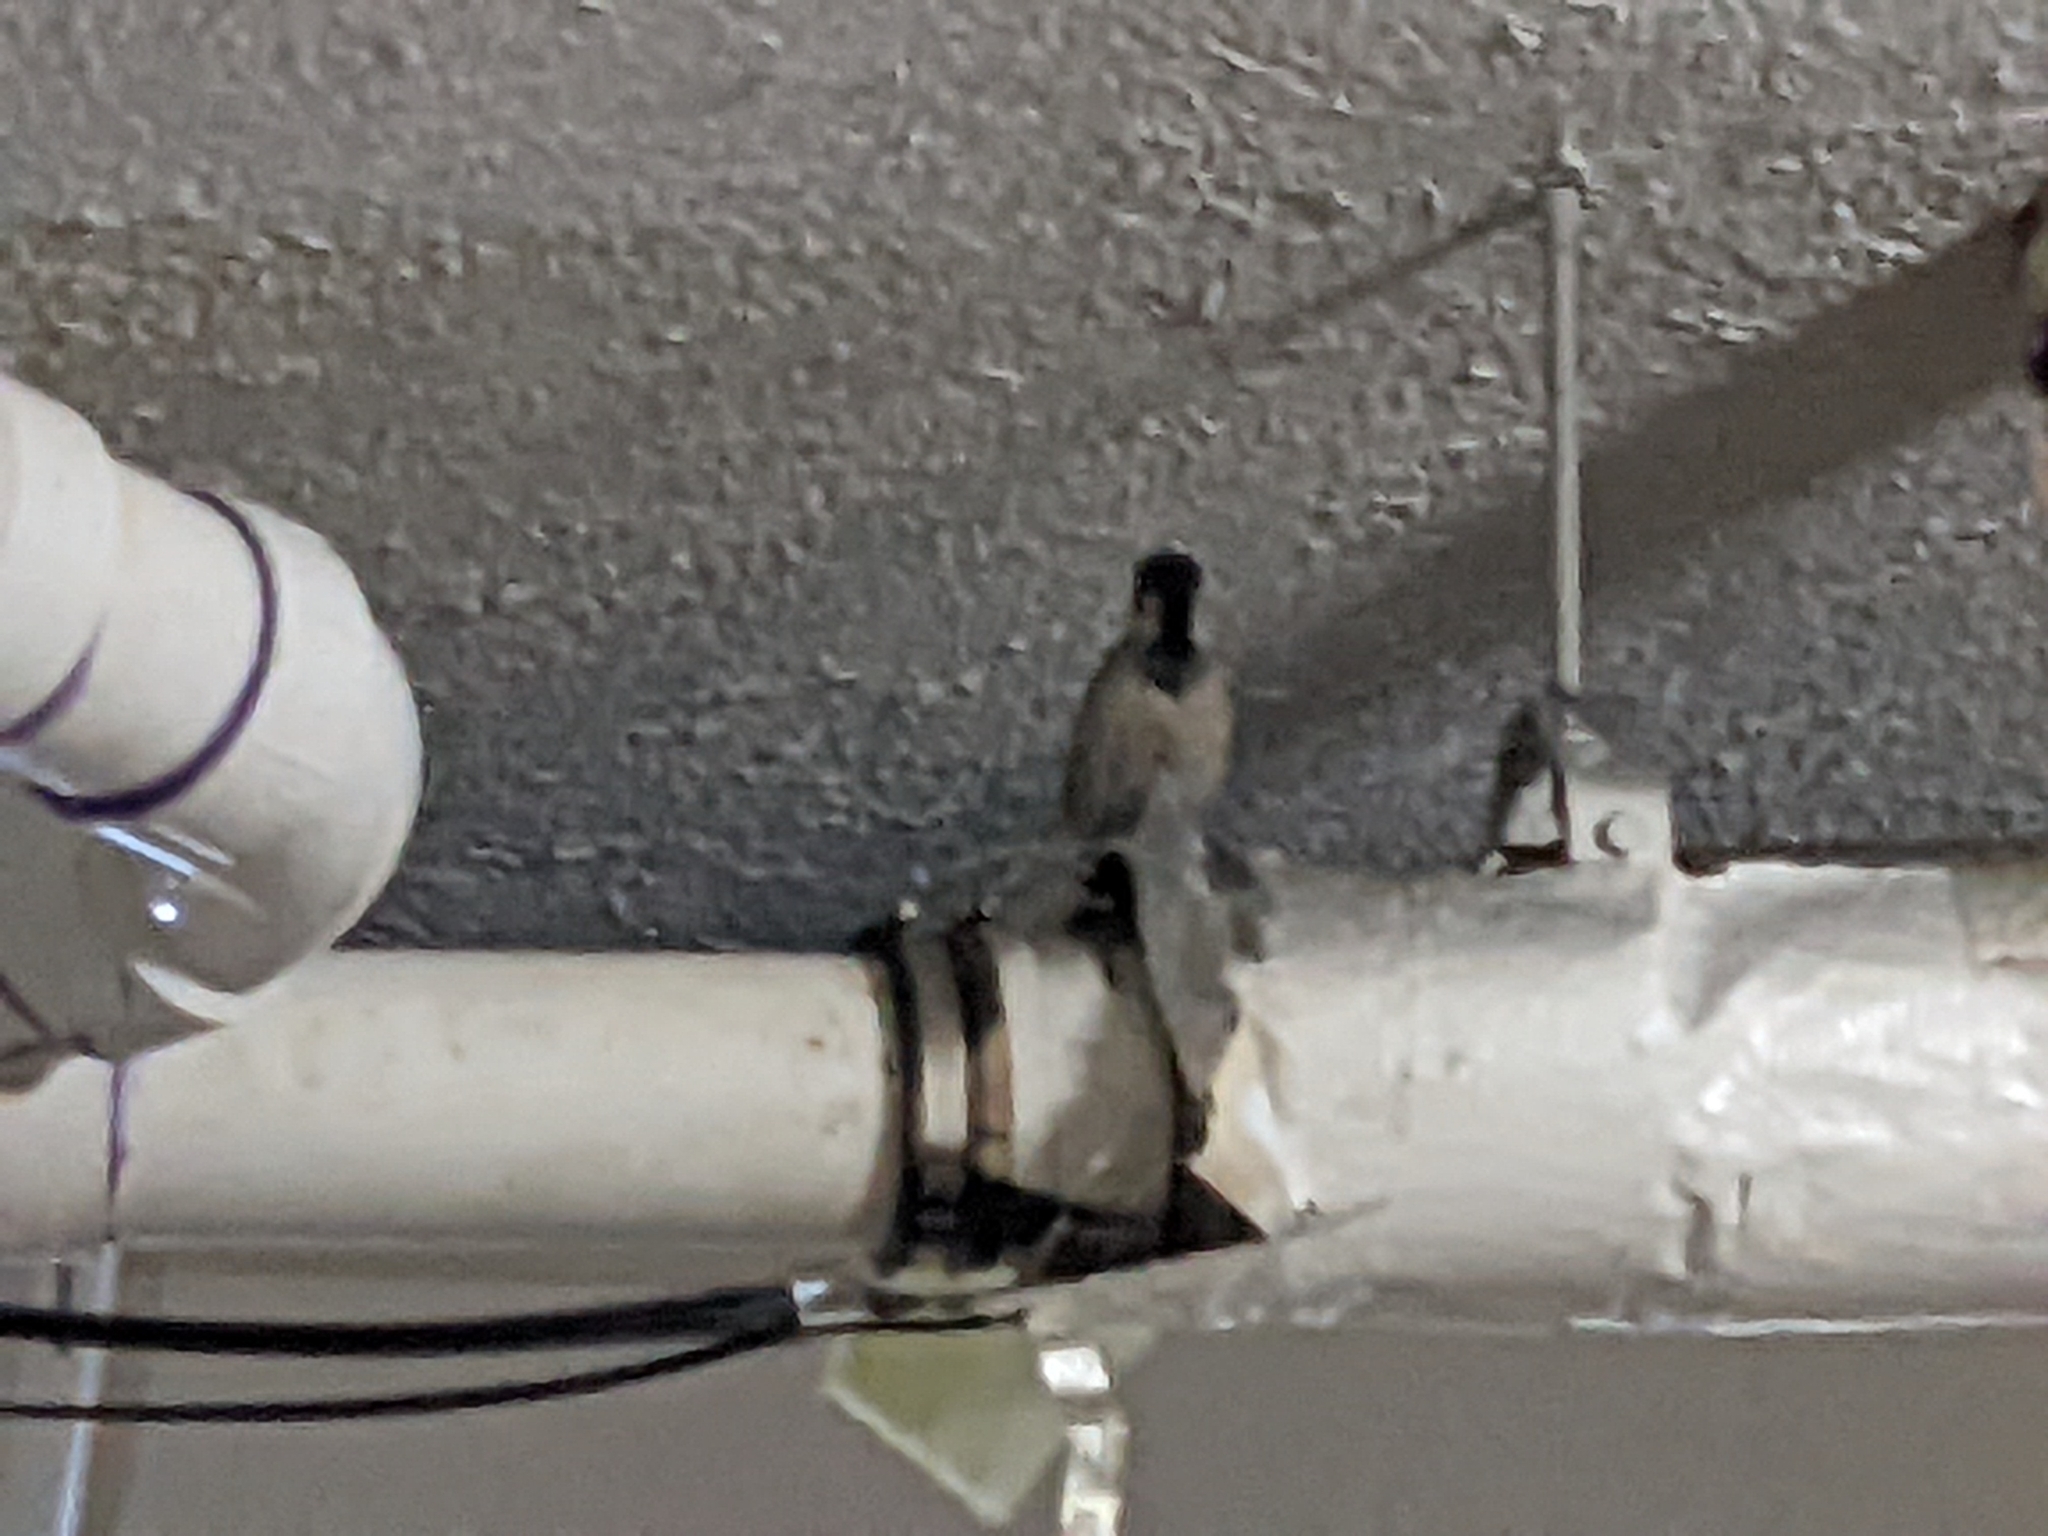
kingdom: Animalia
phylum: Chordata
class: Aves
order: Passeriformes
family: Passeridae
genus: Passer
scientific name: Passer domesticus
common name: House sparrow
